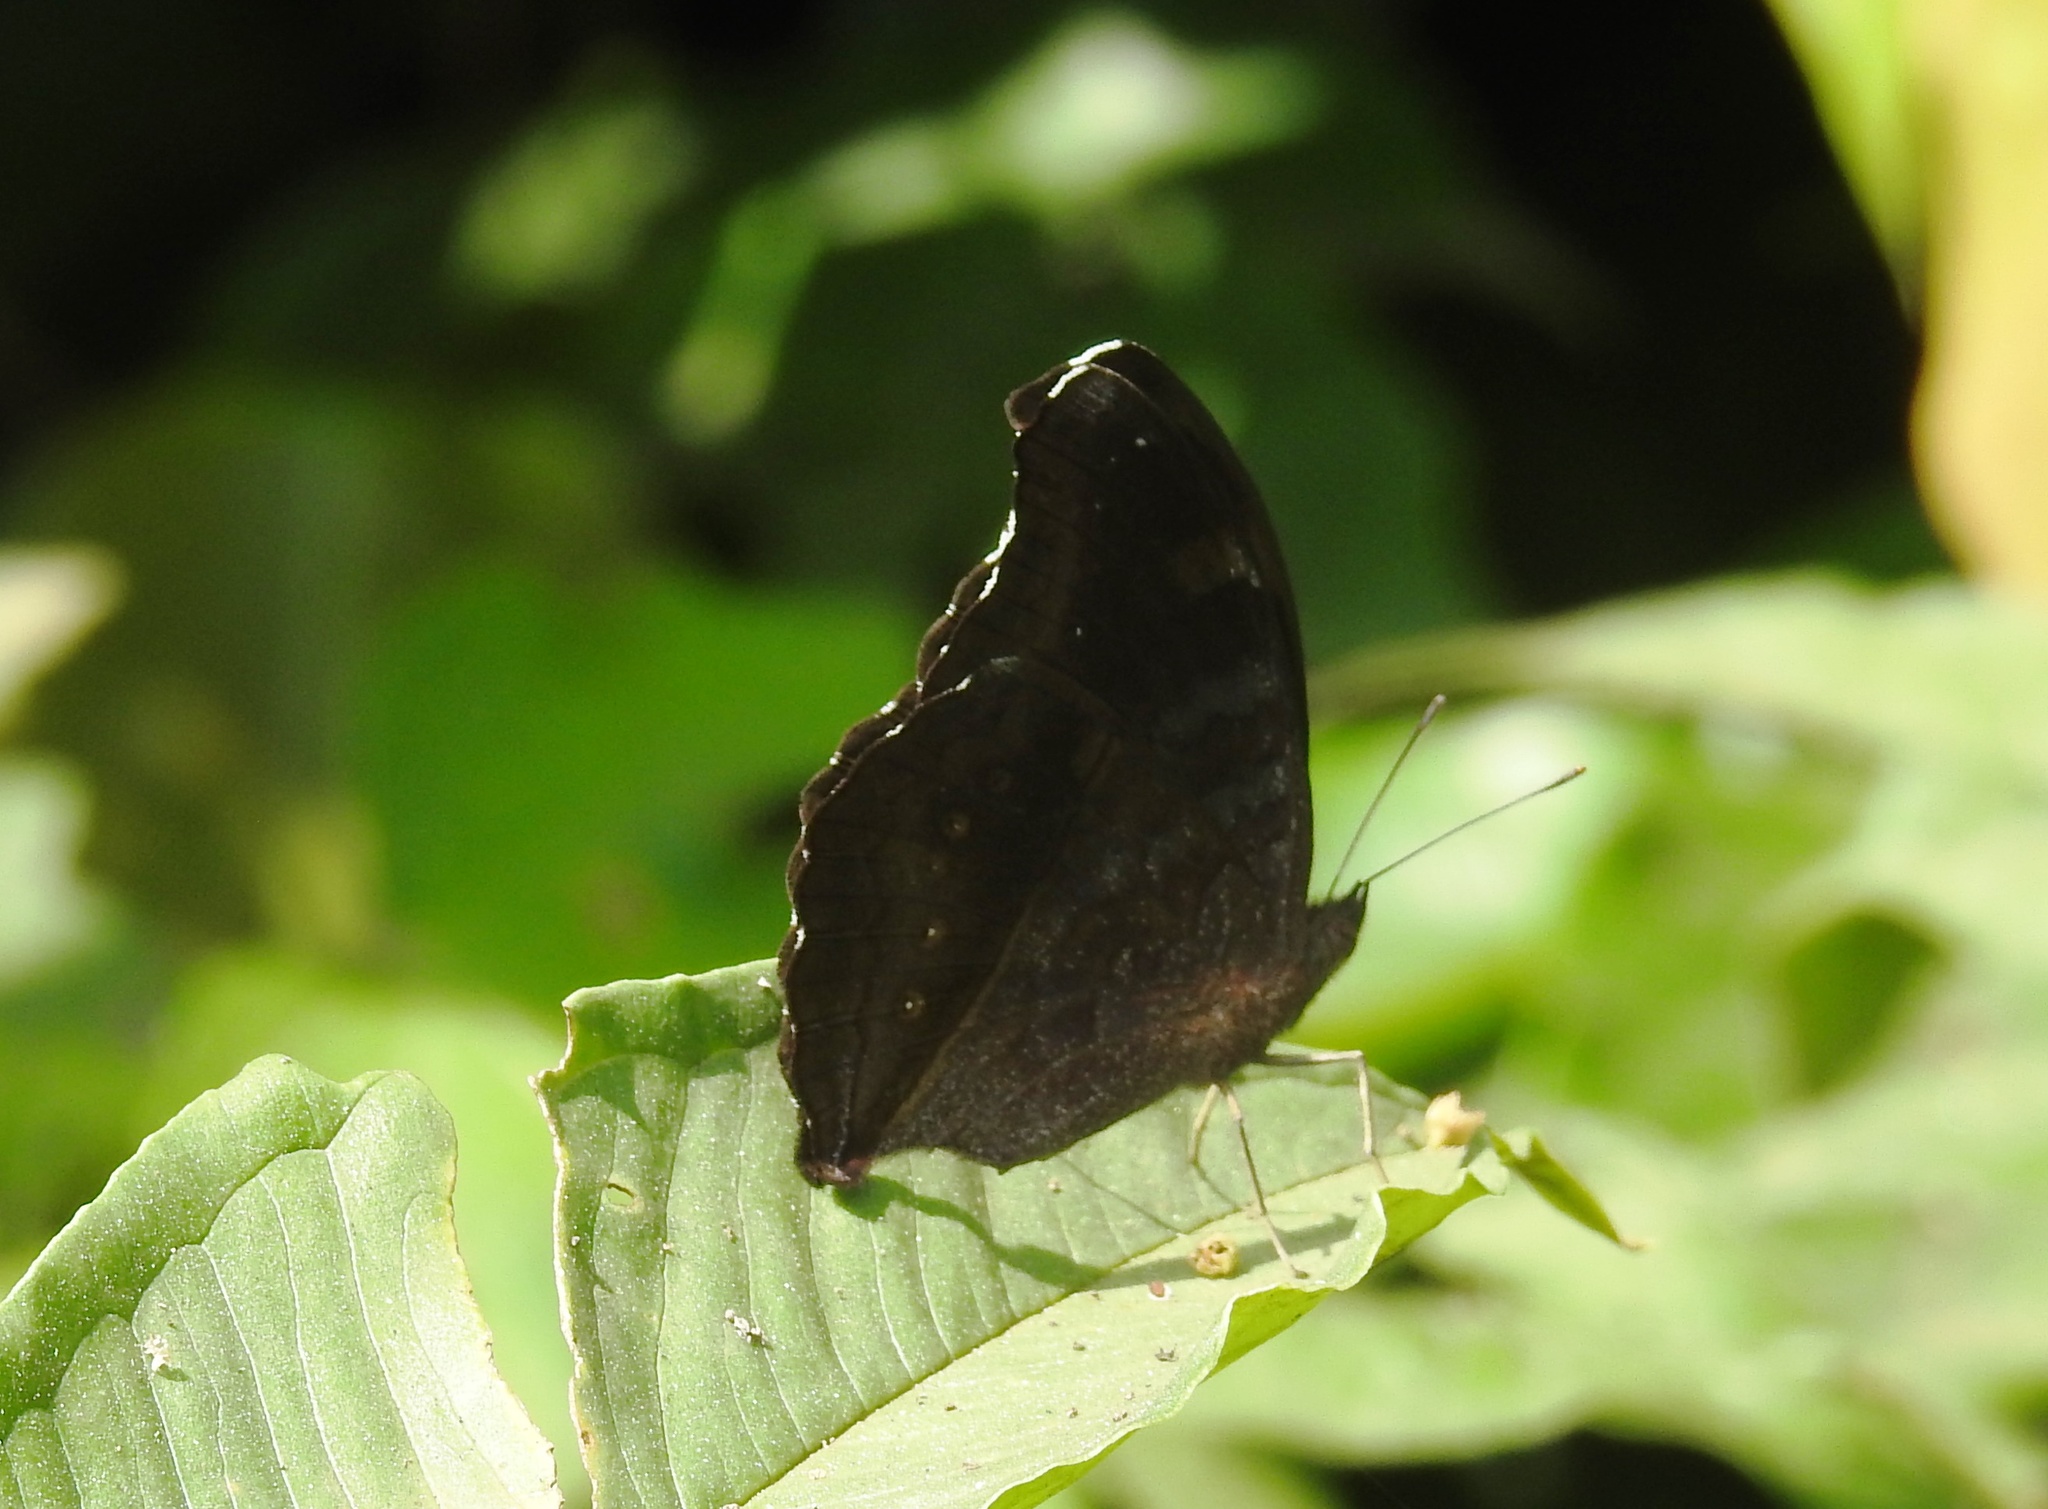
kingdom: Animalia
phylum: Arthropoda
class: Insecta
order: Lepidoptera
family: Nymphalidae
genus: Junonia
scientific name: Junonia iphita
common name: Chocolate pansy
